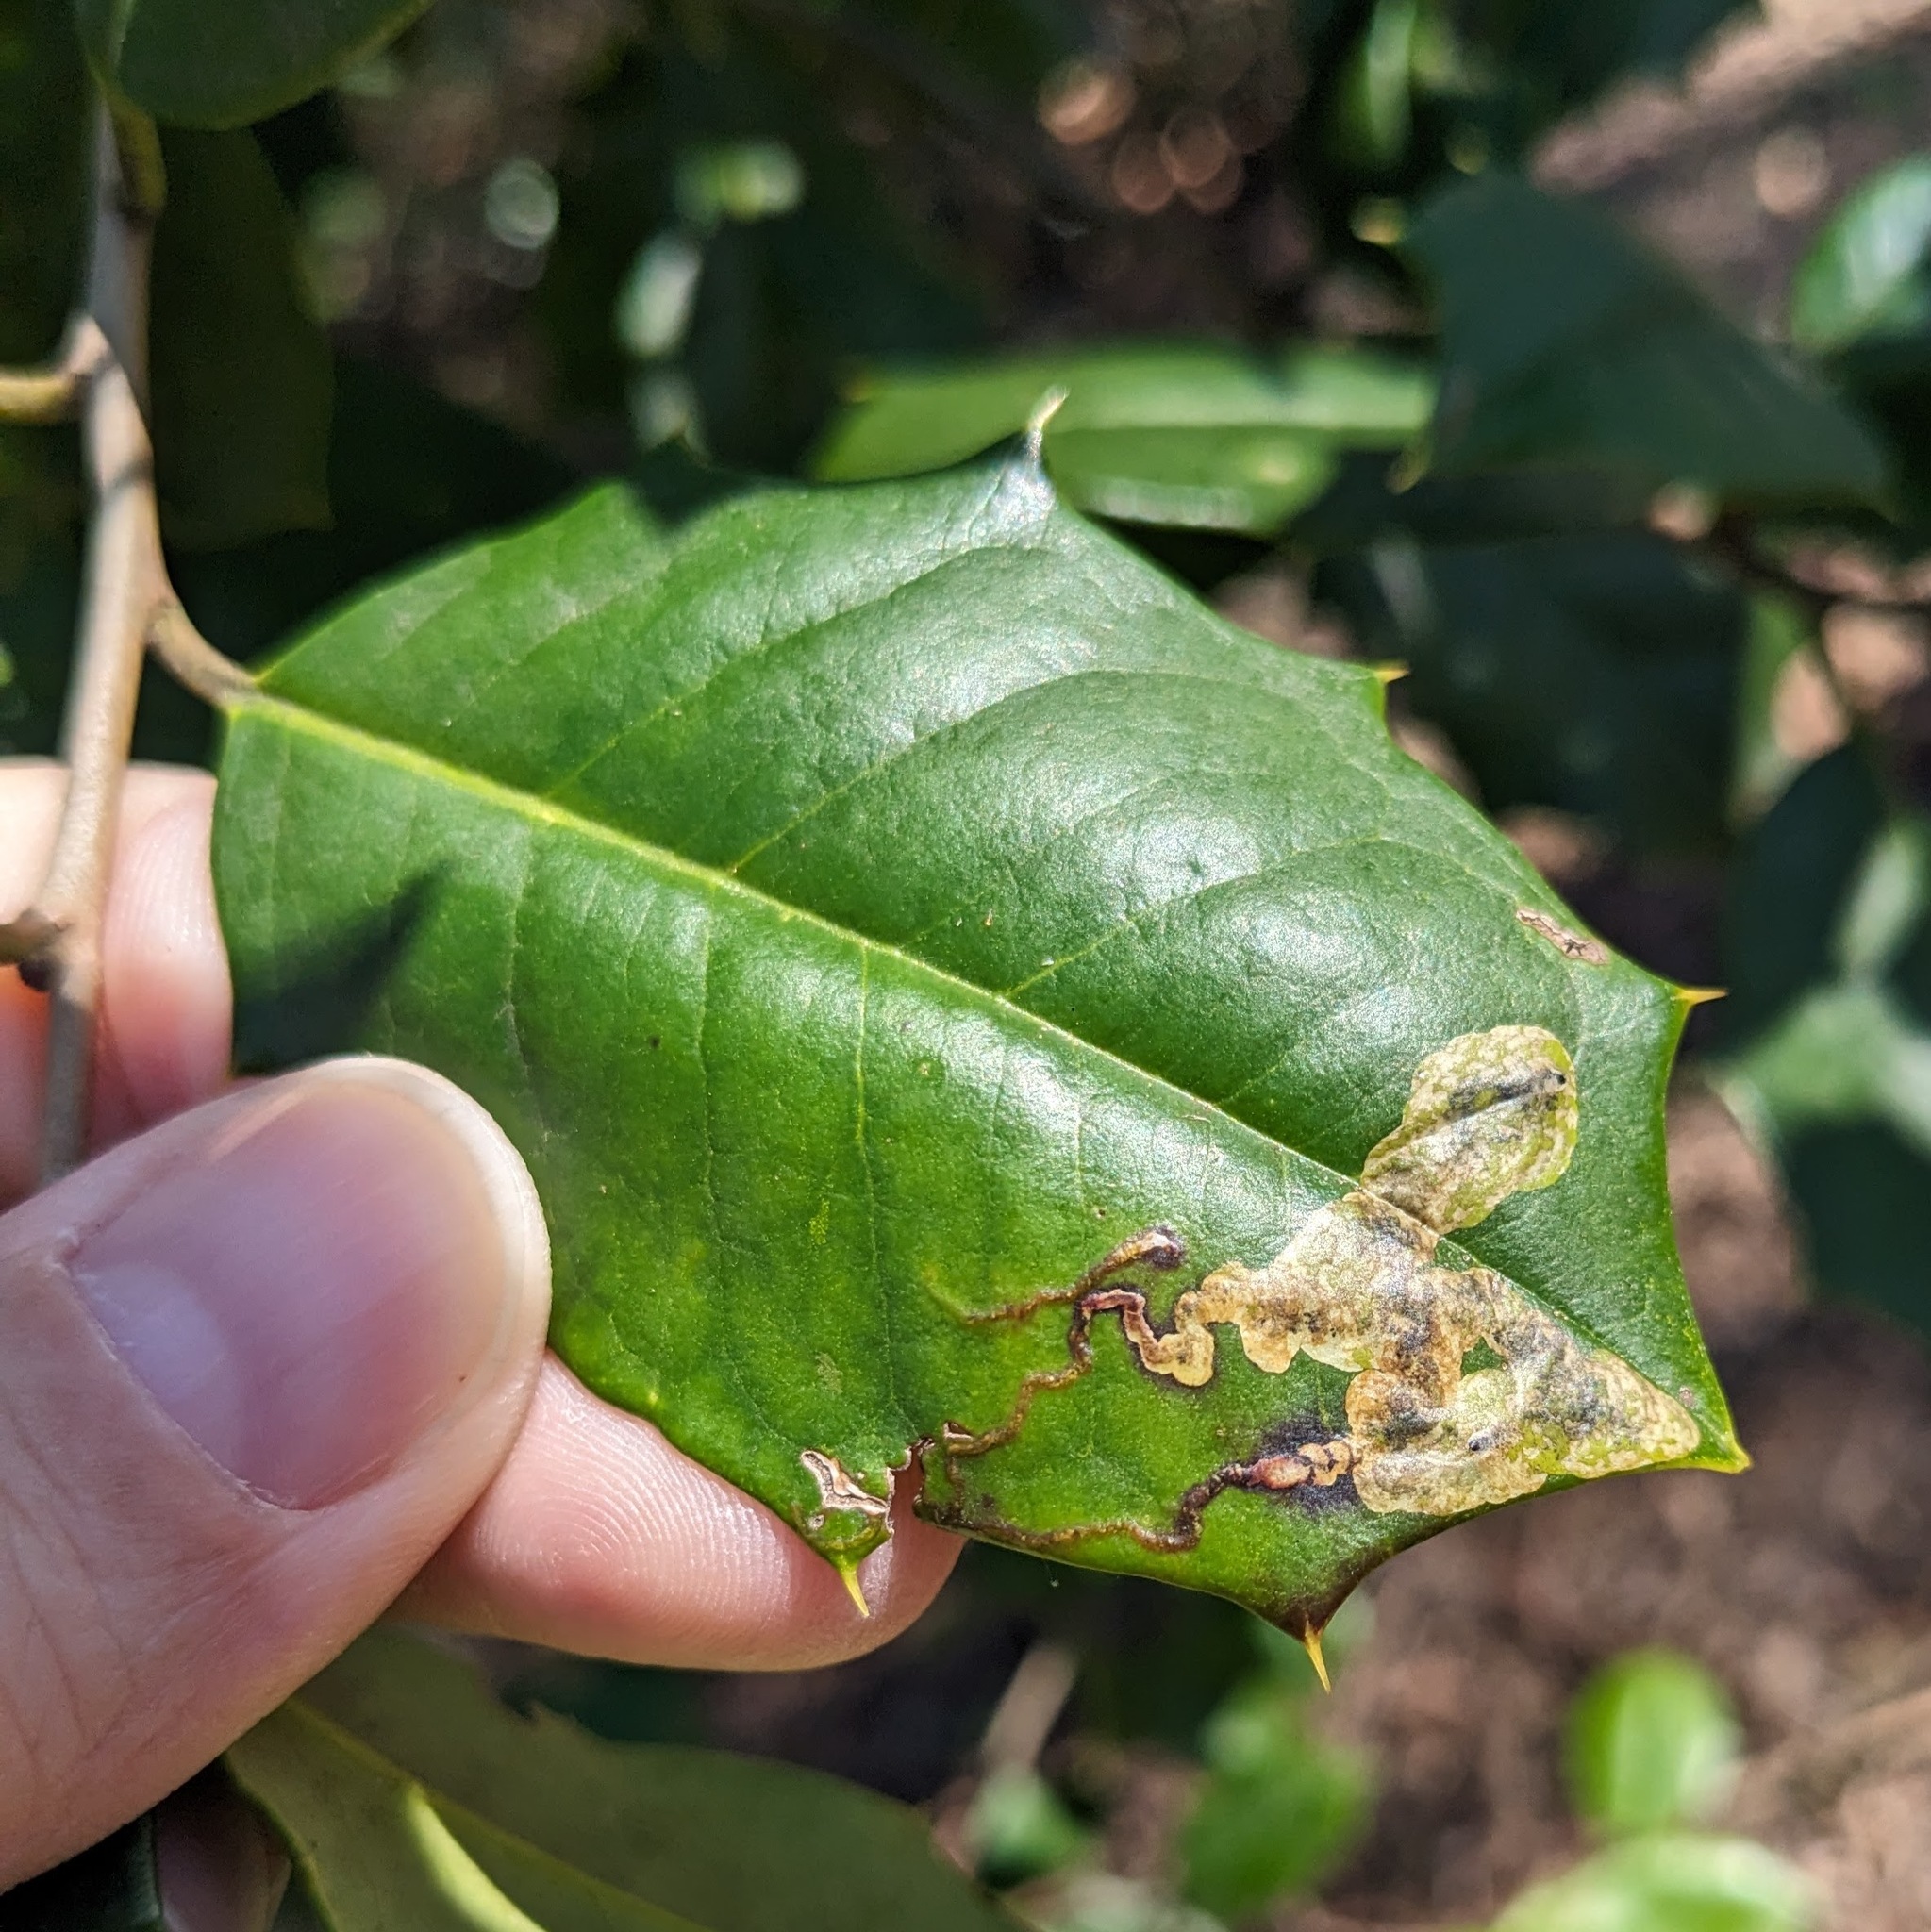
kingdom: Animalia
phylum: Arthropoda
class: Insecta
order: Diptera
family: Agromyzidae
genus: Phytomyza
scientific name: Phytomyza ilicicola
